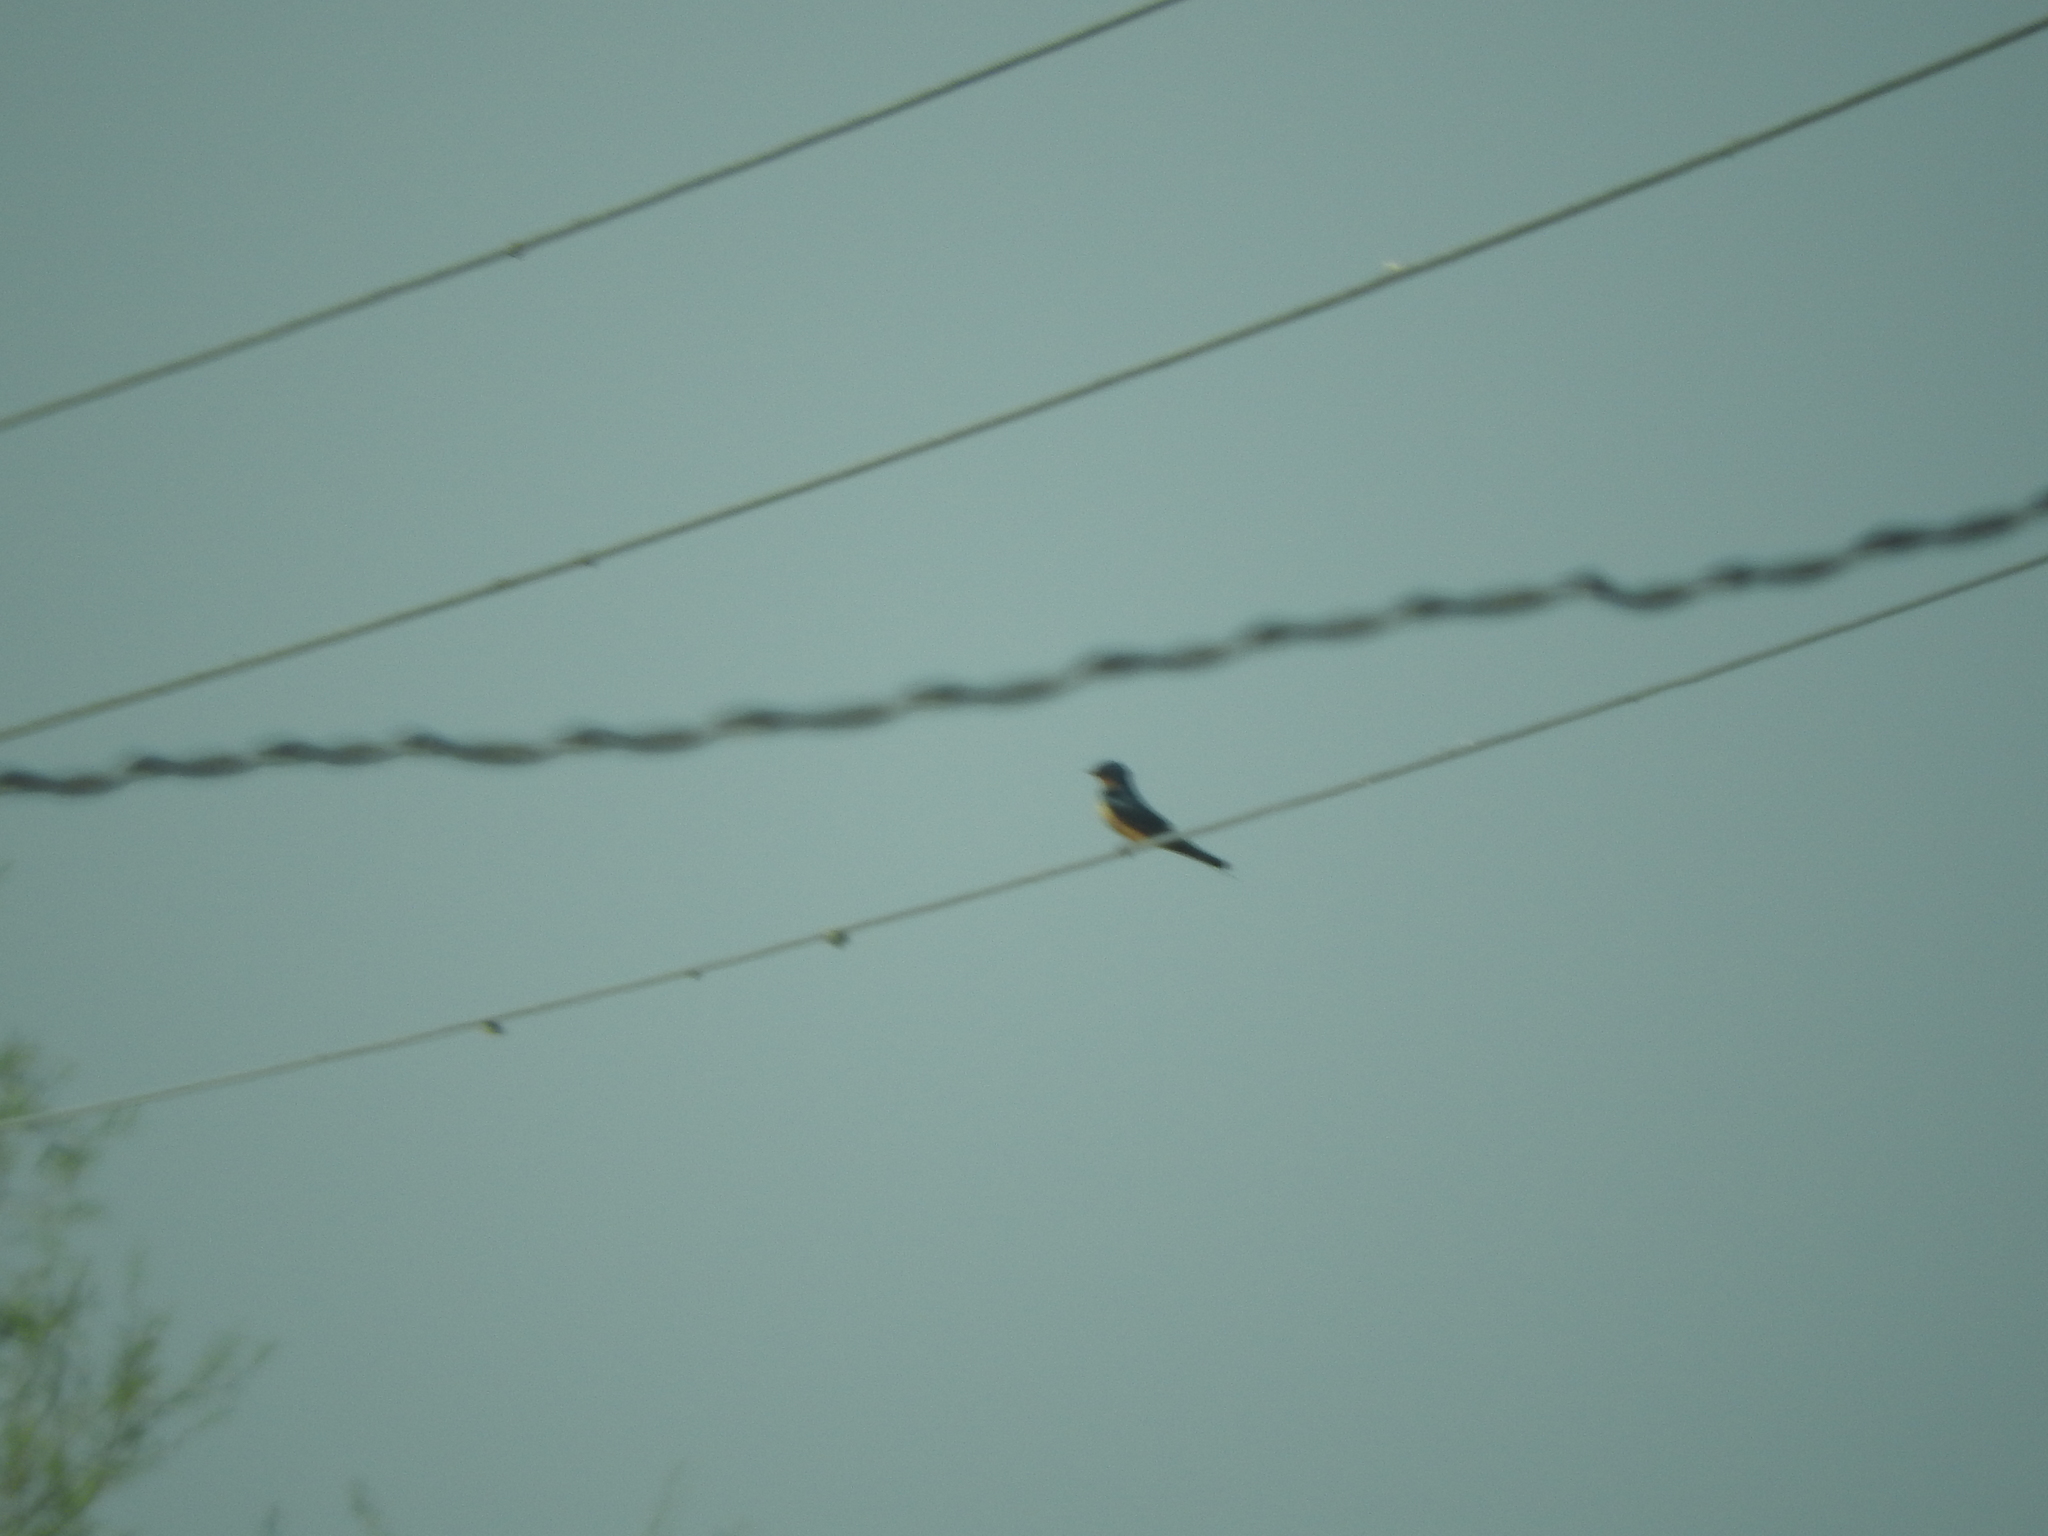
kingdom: Animalia
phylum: Chordata
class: Aves
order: Passeriformes
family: Hirundinidae
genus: Hirundo
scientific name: Hirundo rustica
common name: Barn swallow
